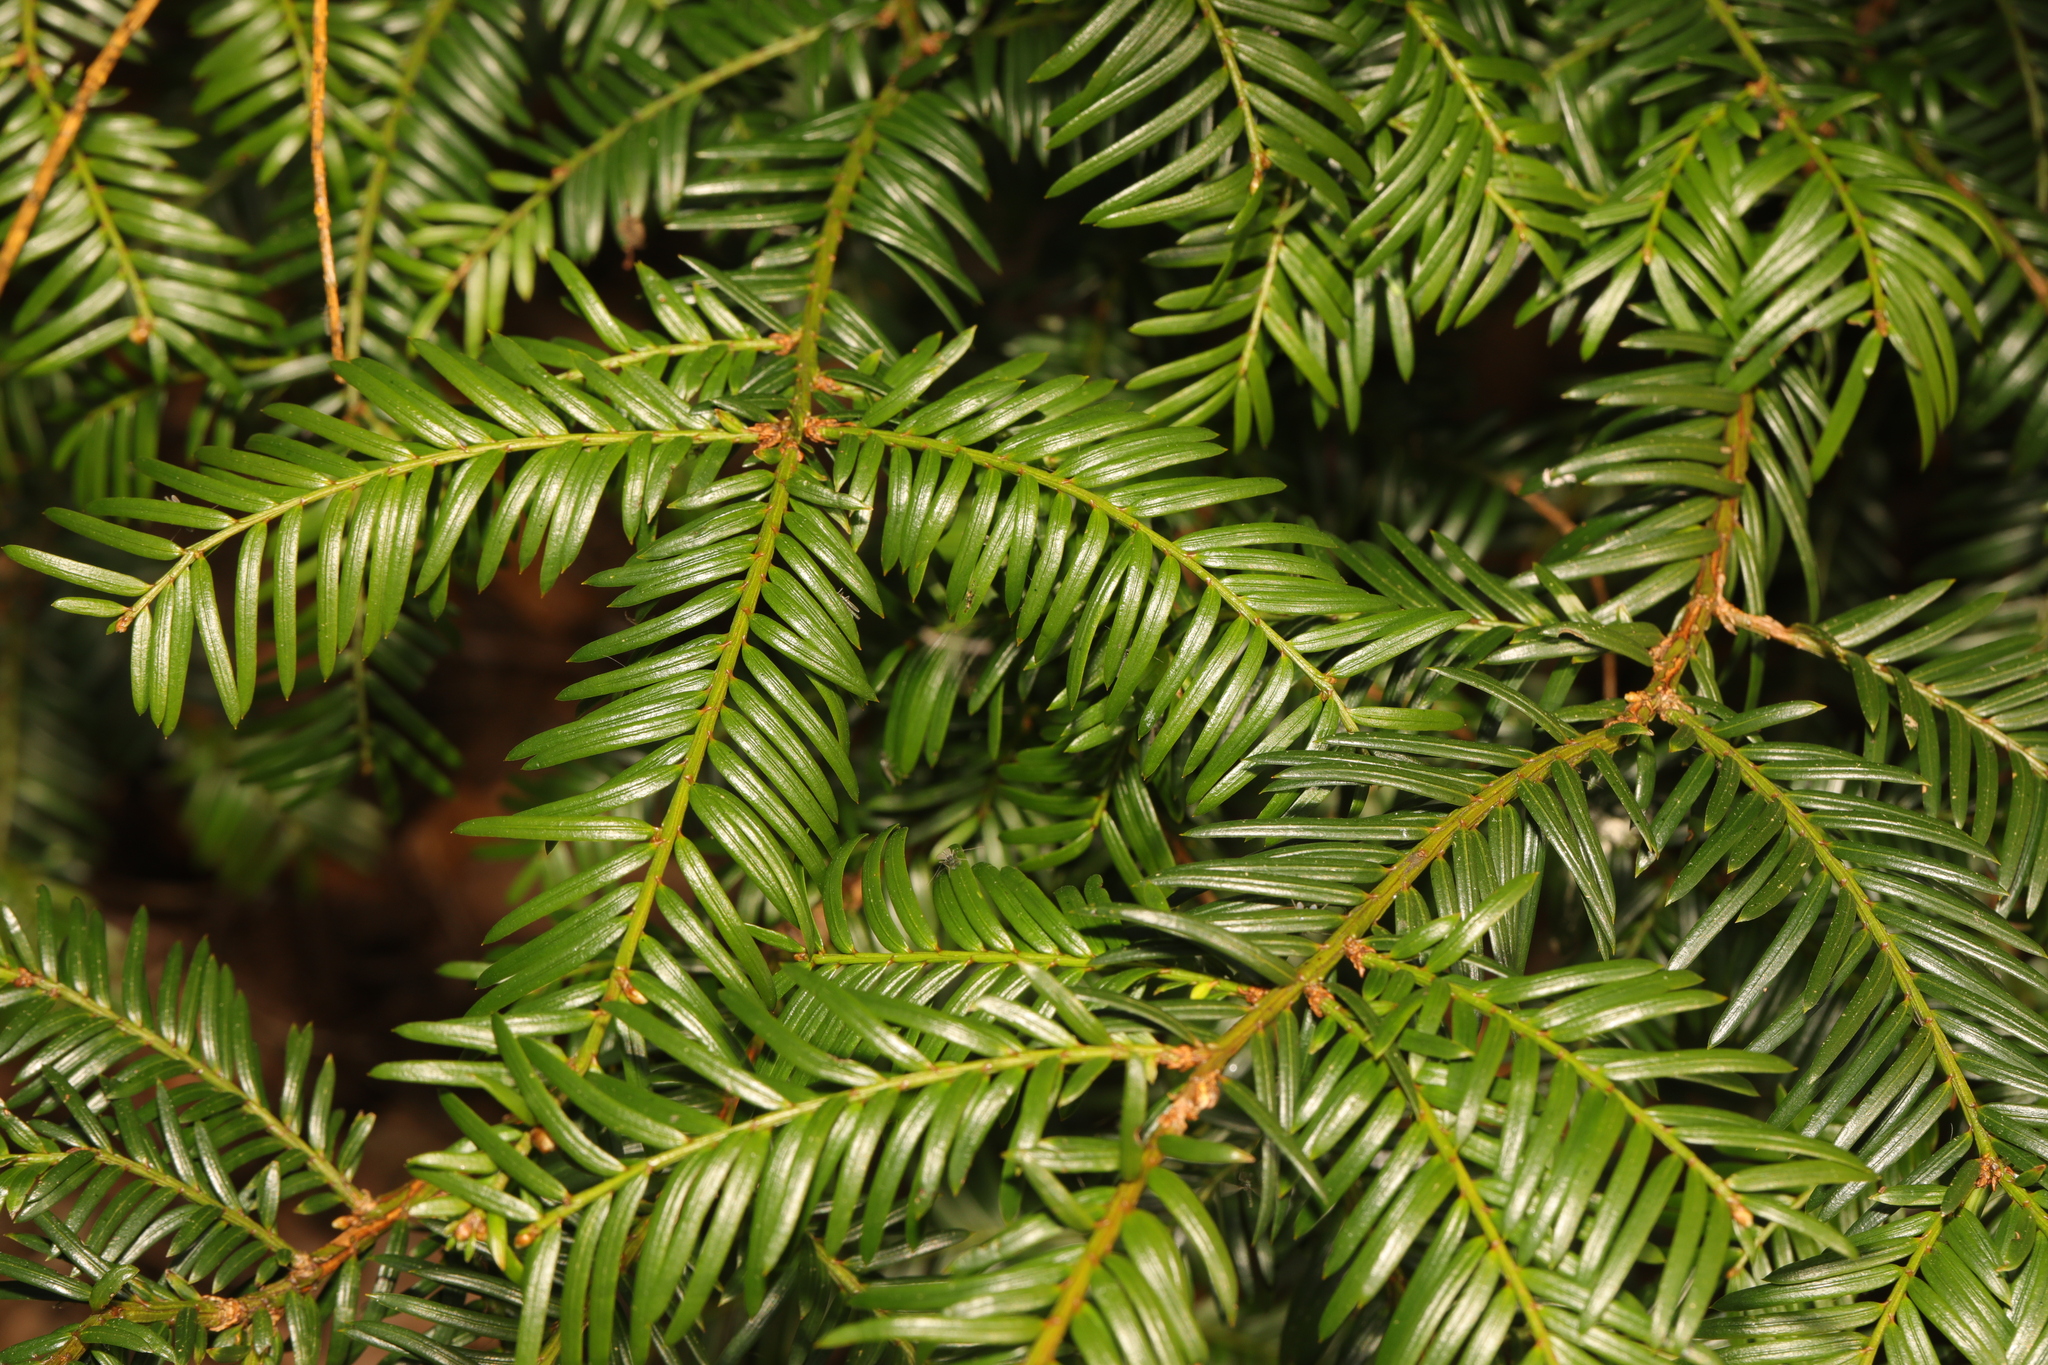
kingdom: Plantae
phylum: Tracheophyta
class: Pinopsida
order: Pinales
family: Taxaceae
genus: Taxus
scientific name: Taxus baccata
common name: Yew
